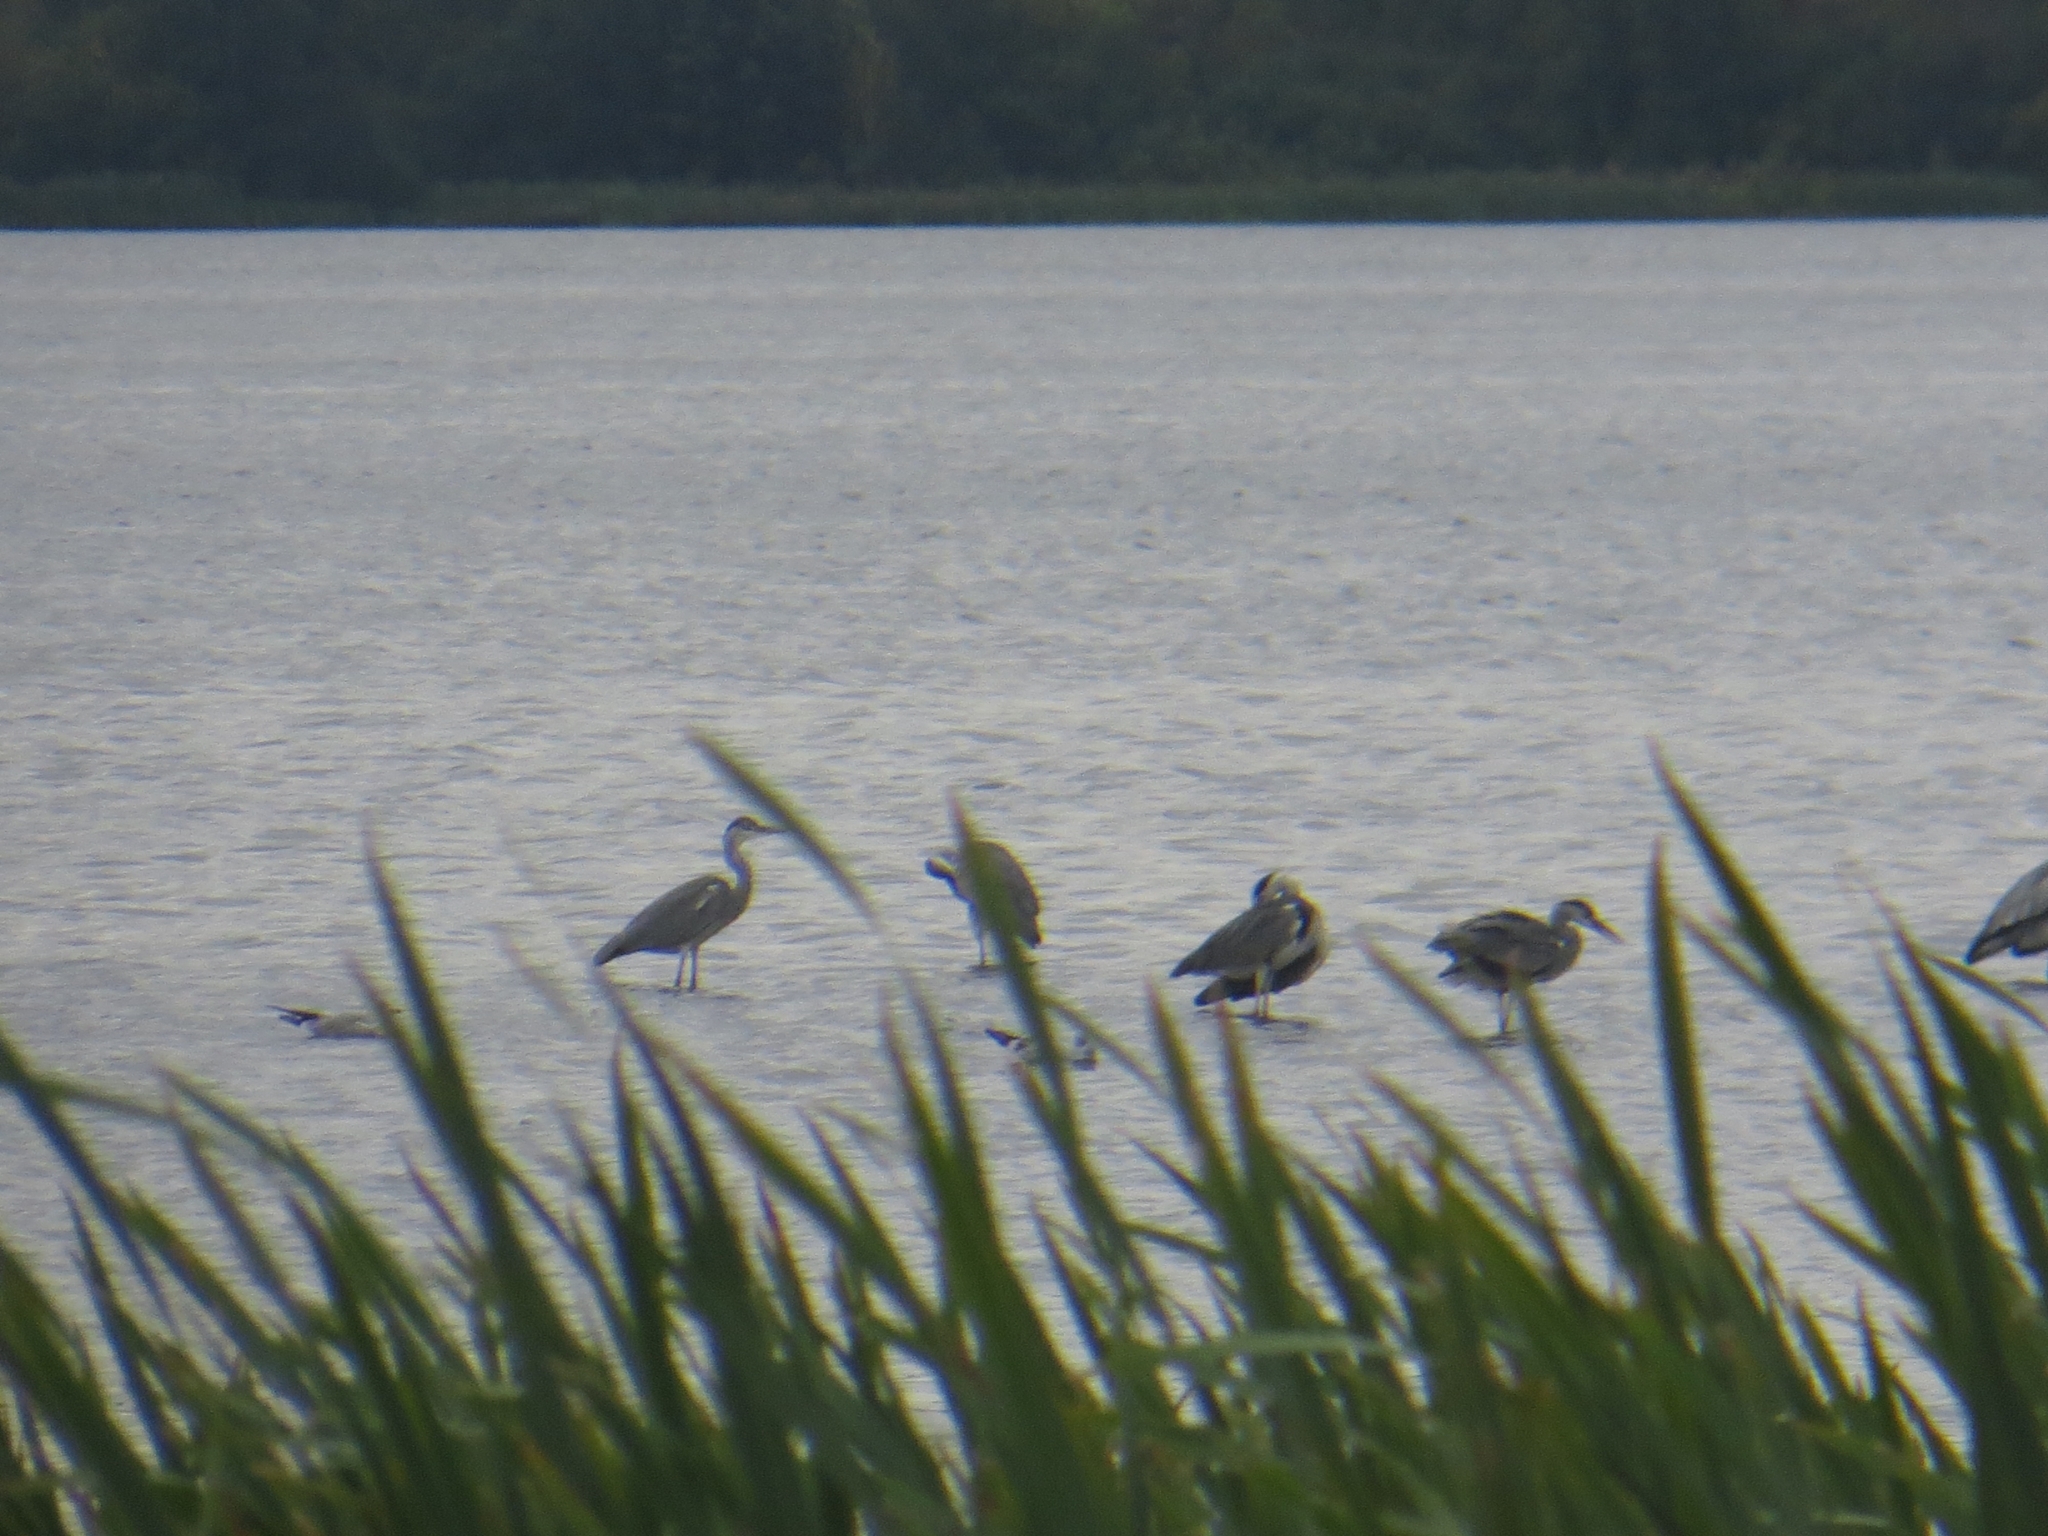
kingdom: Animalia
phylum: Chordata
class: Aves
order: Pelecaniformes
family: Ardeidae
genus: Ardea
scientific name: Ardea cinerea
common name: Grey heron
